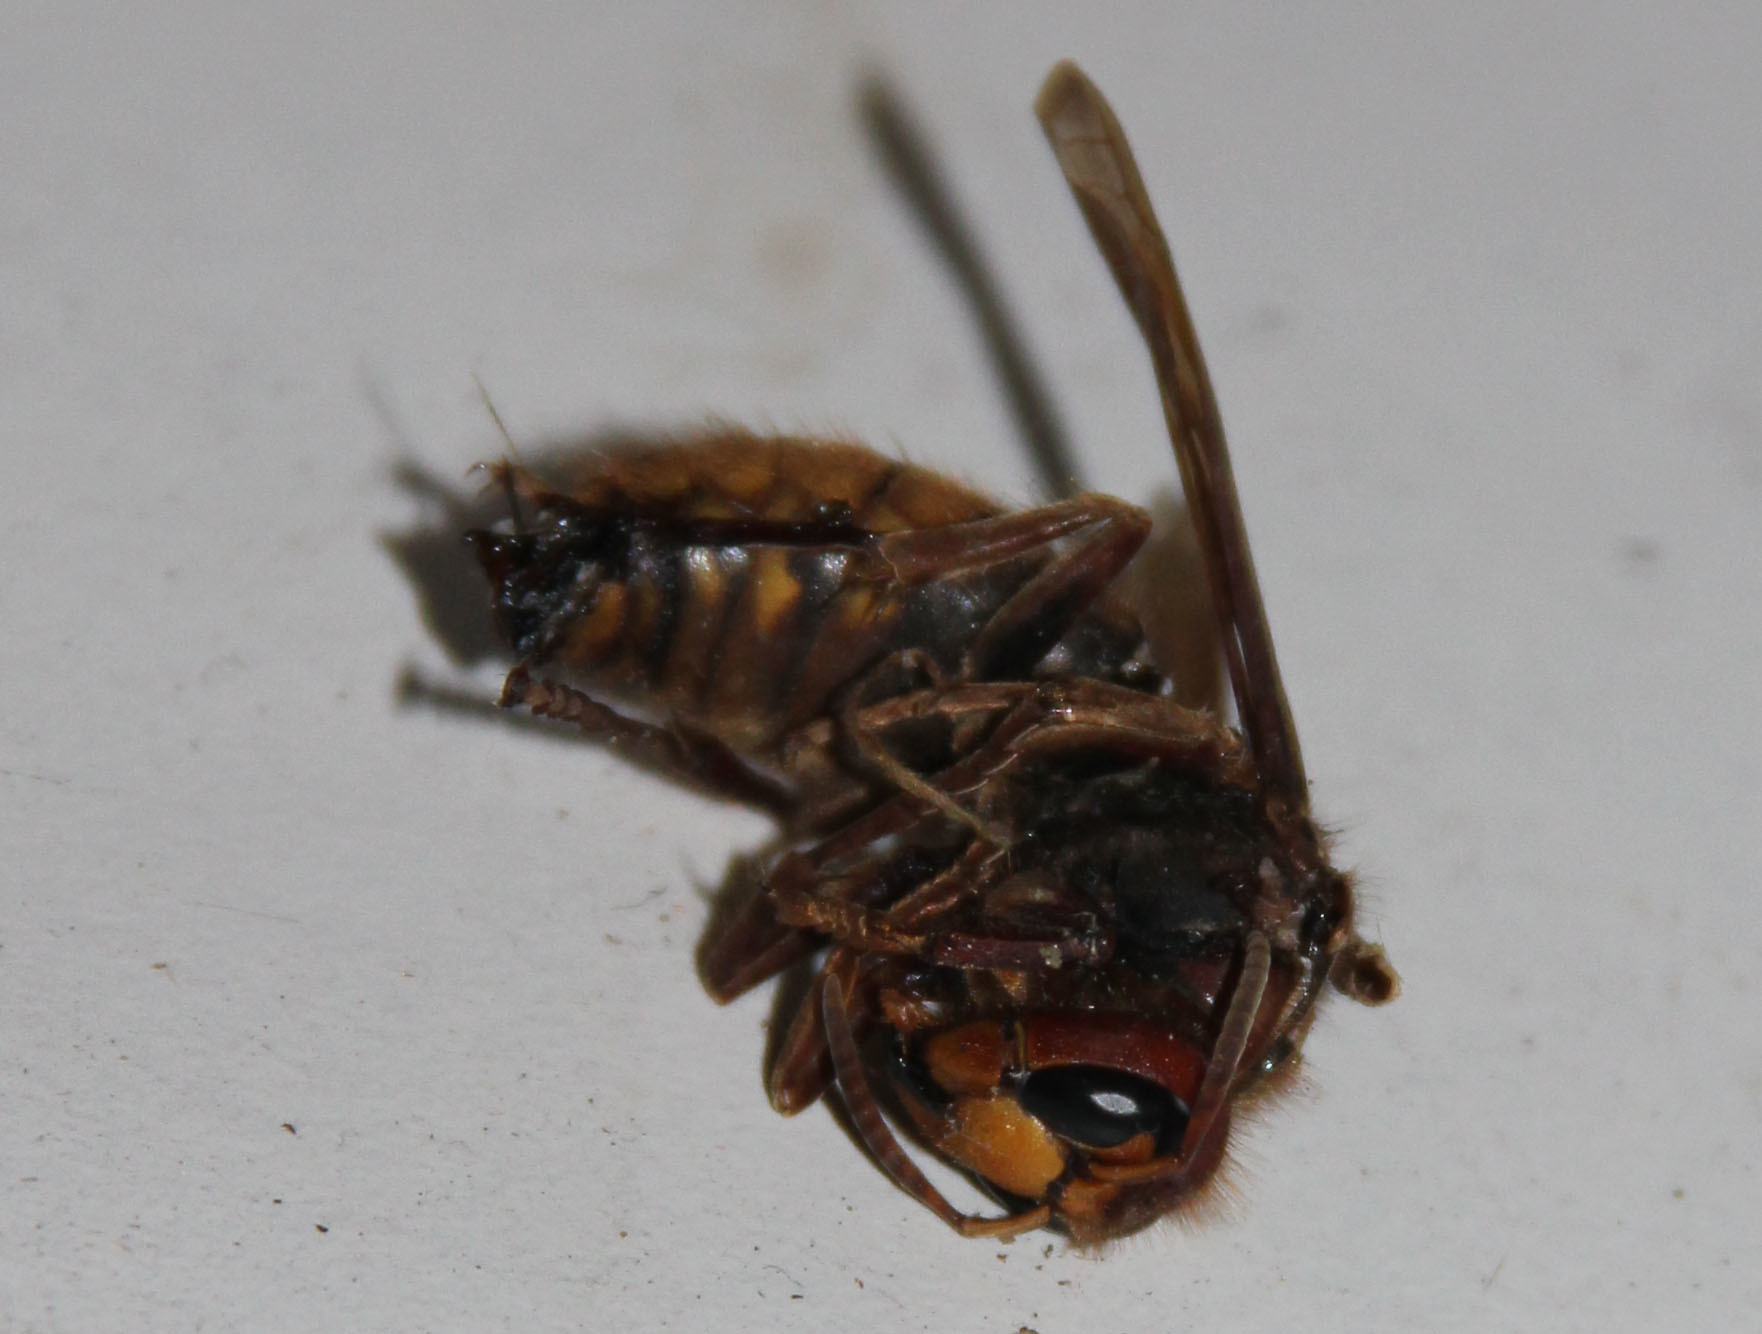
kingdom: Animalia
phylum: Arthropoda
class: Insecta
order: Hymenoptera
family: Vespidae
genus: Vespa
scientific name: Vespa crabro
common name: Hornet
